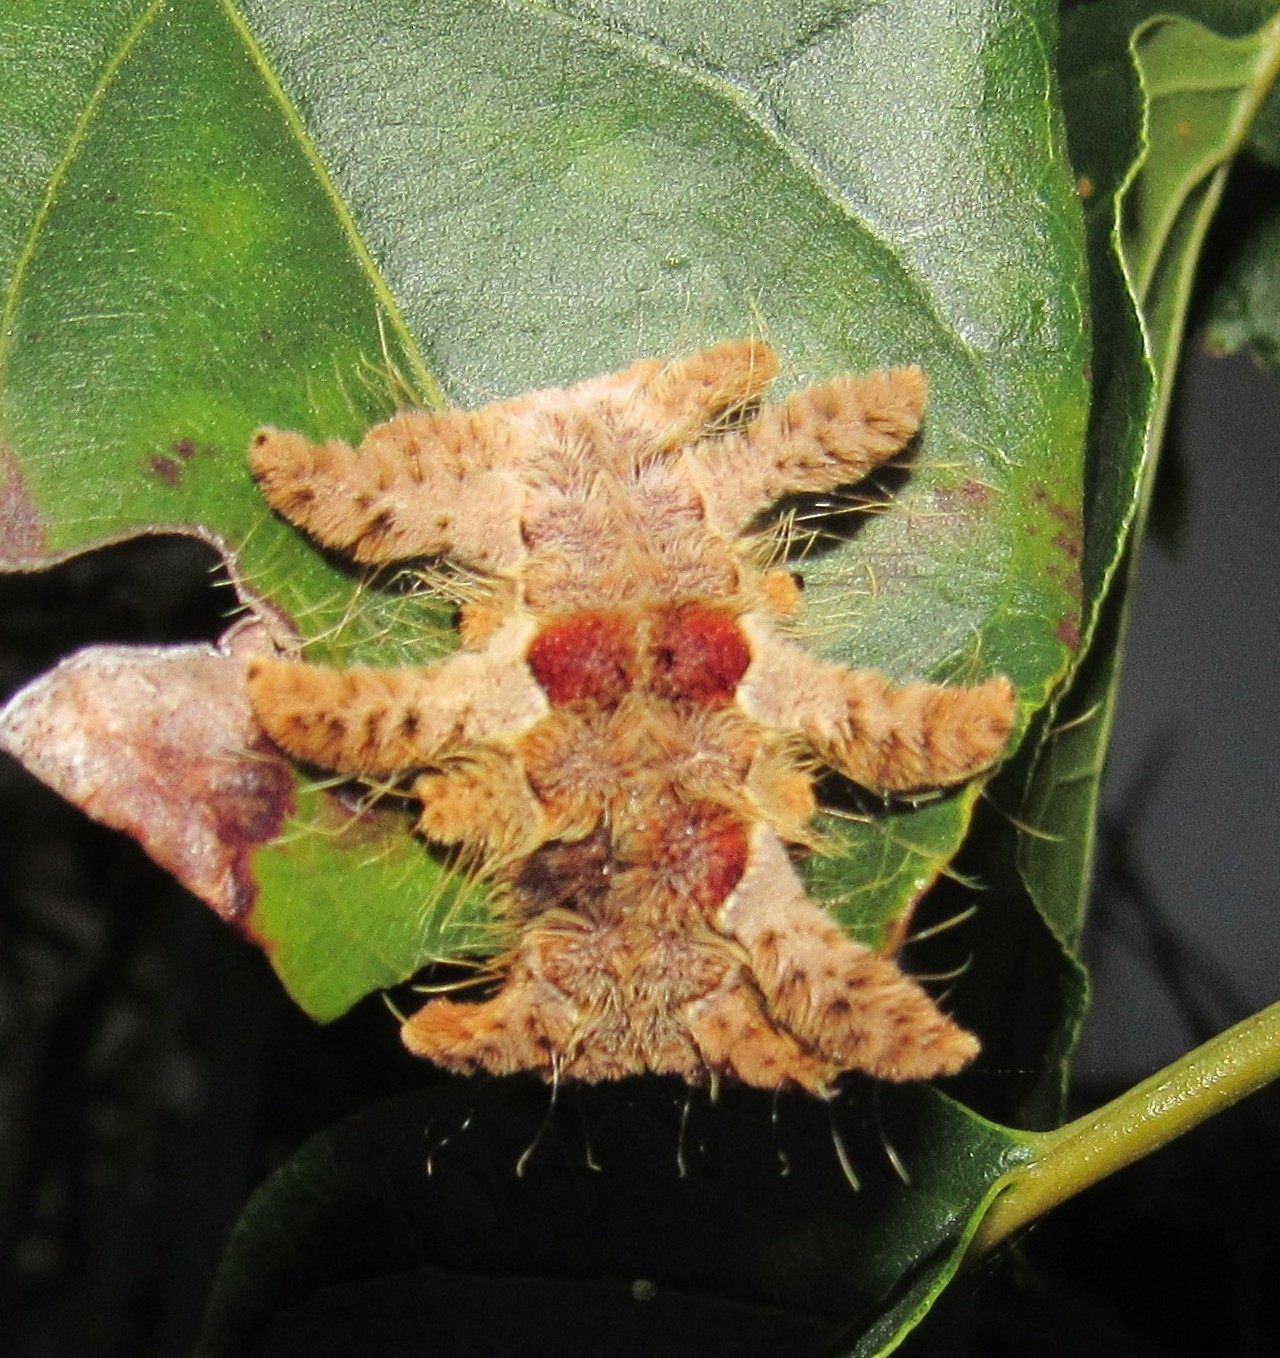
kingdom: Animalia
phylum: Arthropoda
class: Insecta
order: Lepidoptera
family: Limacodidae
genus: Phobetron
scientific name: Phobetron hipparchia
